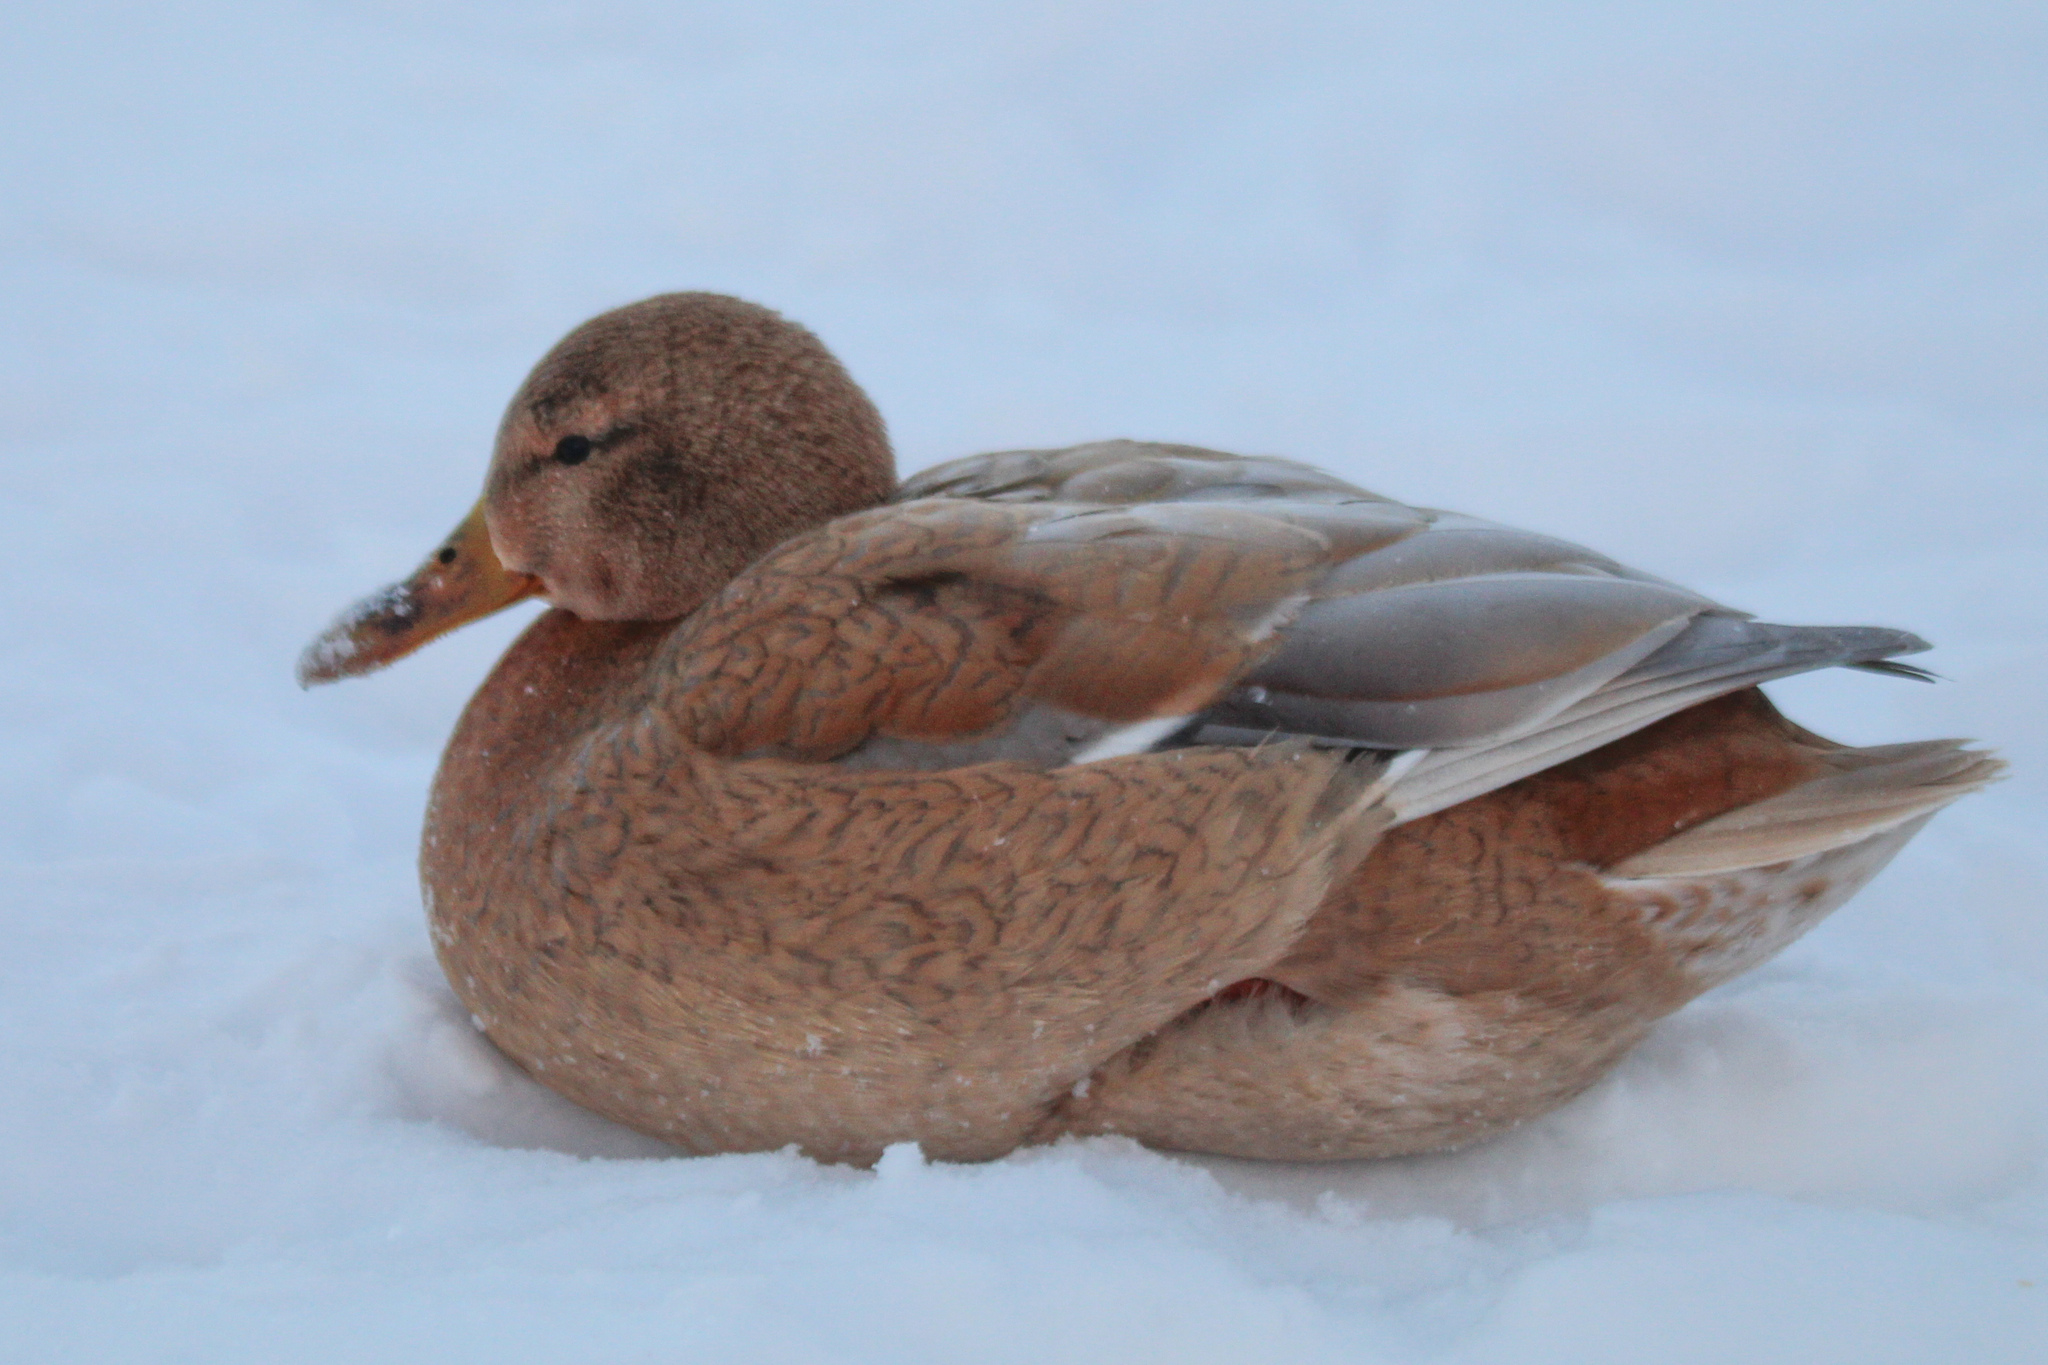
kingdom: Animalia
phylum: Chordata
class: Aves
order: Anseriformes
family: Anatidae
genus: Anas
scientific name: Anas platyrhynchos
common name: Mallard
